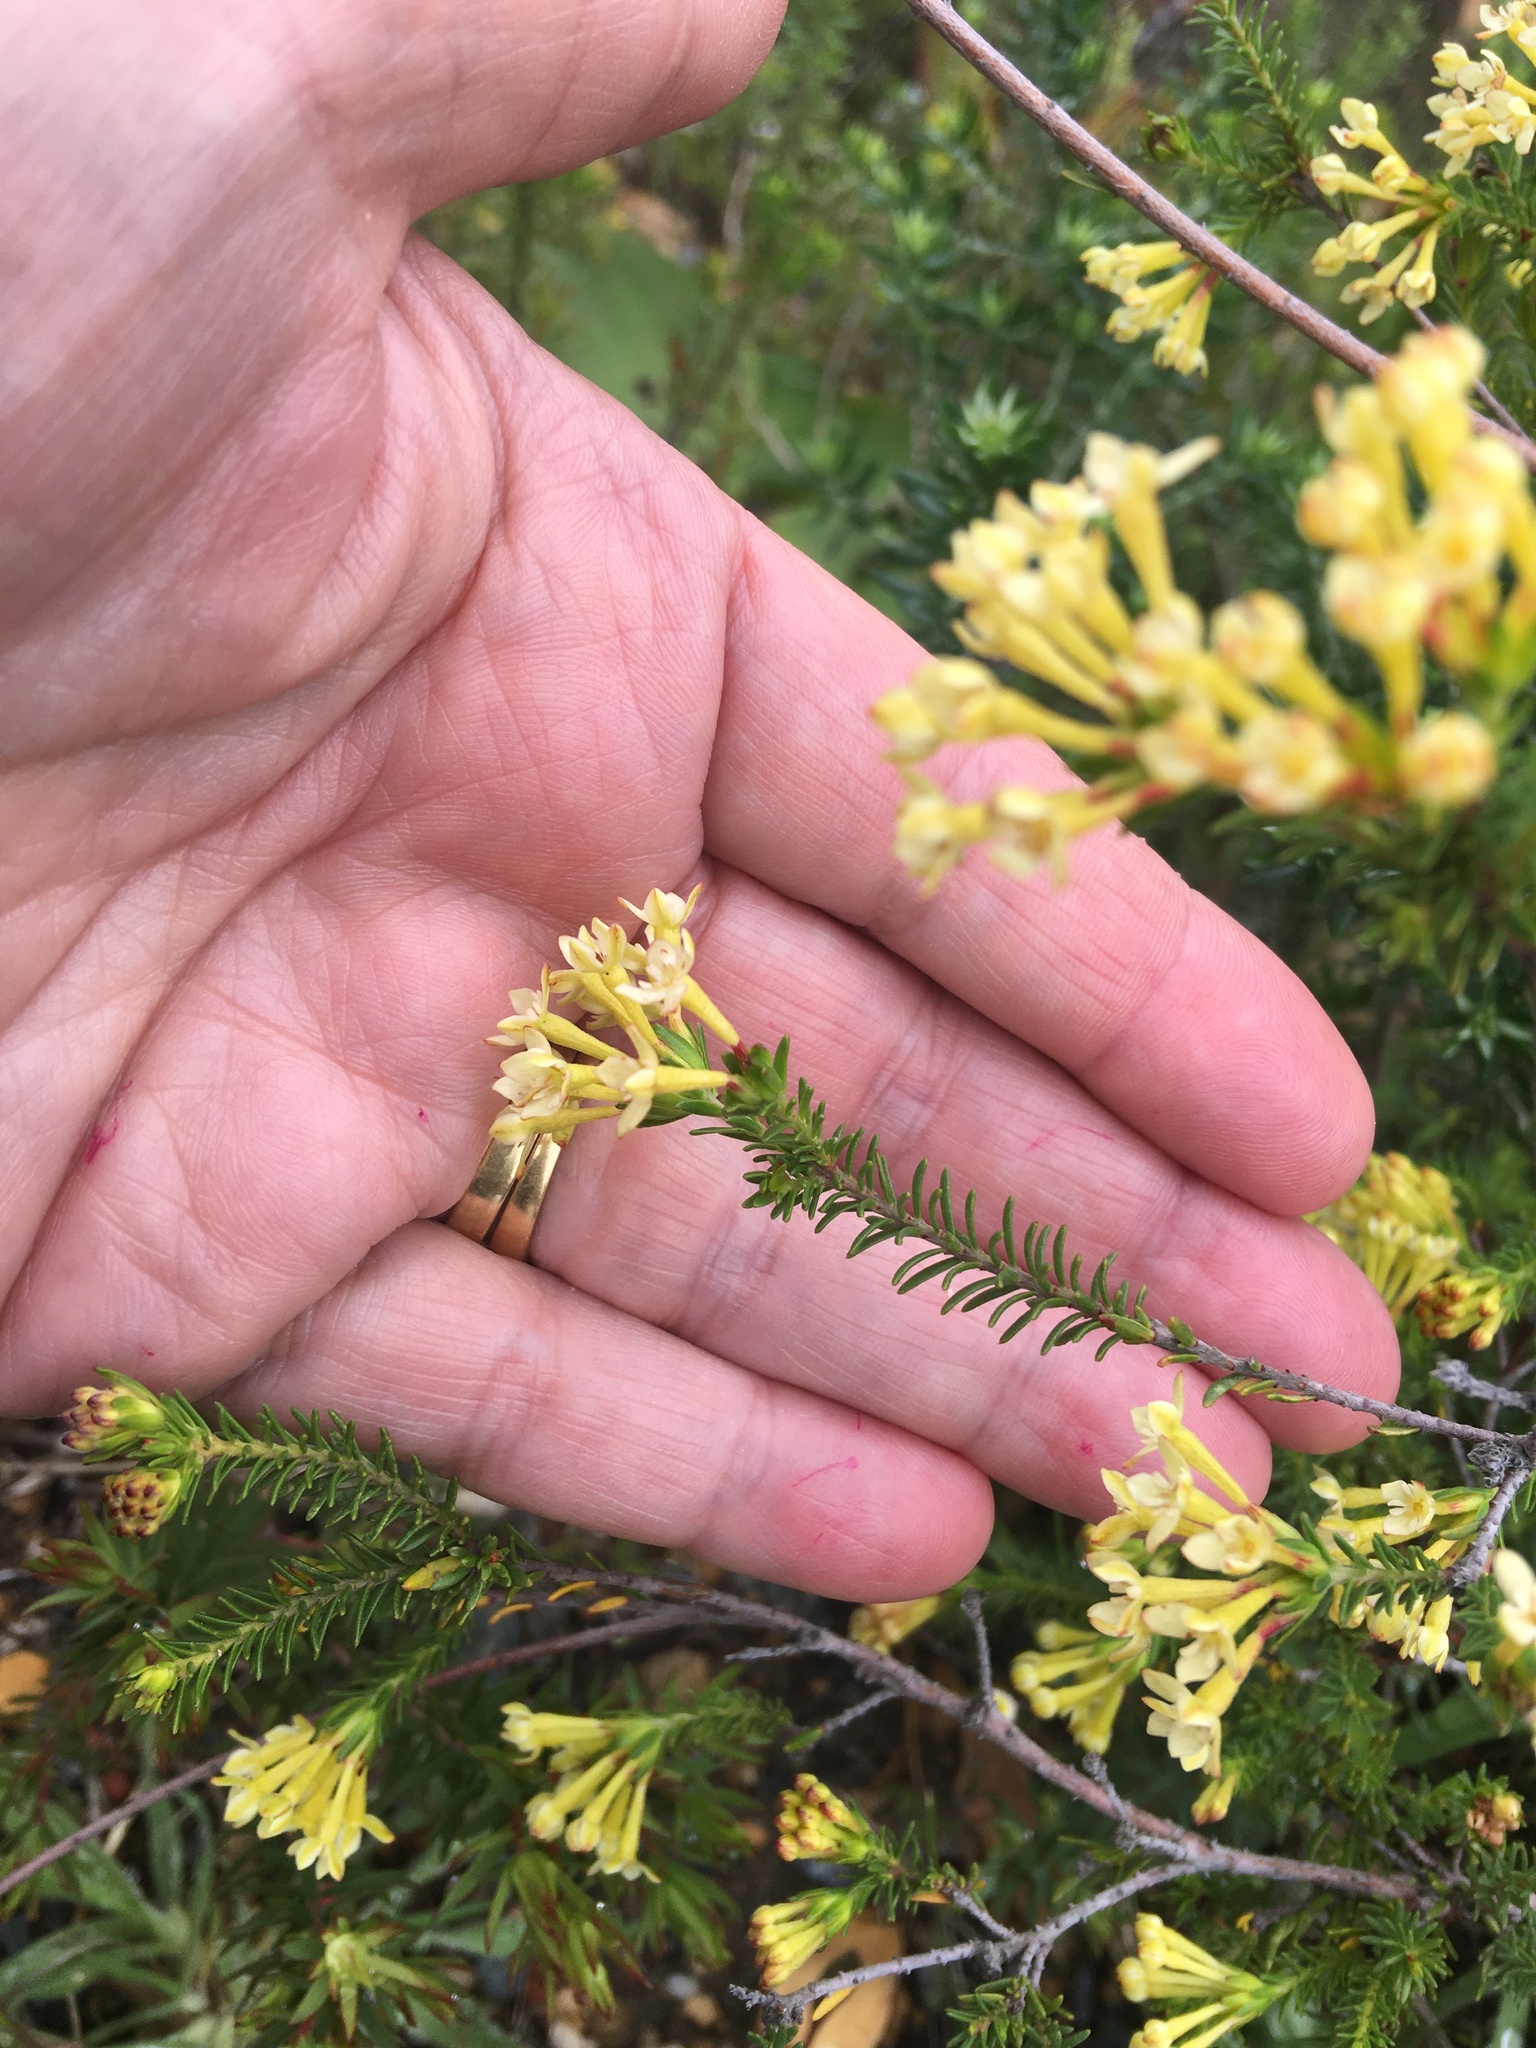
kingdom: Plantae
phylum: Tracheophyta
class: Magnoliopsida
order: Malvales
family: Thymelaeaceae
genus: Gnidia
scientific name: Gnidia squarrosa
